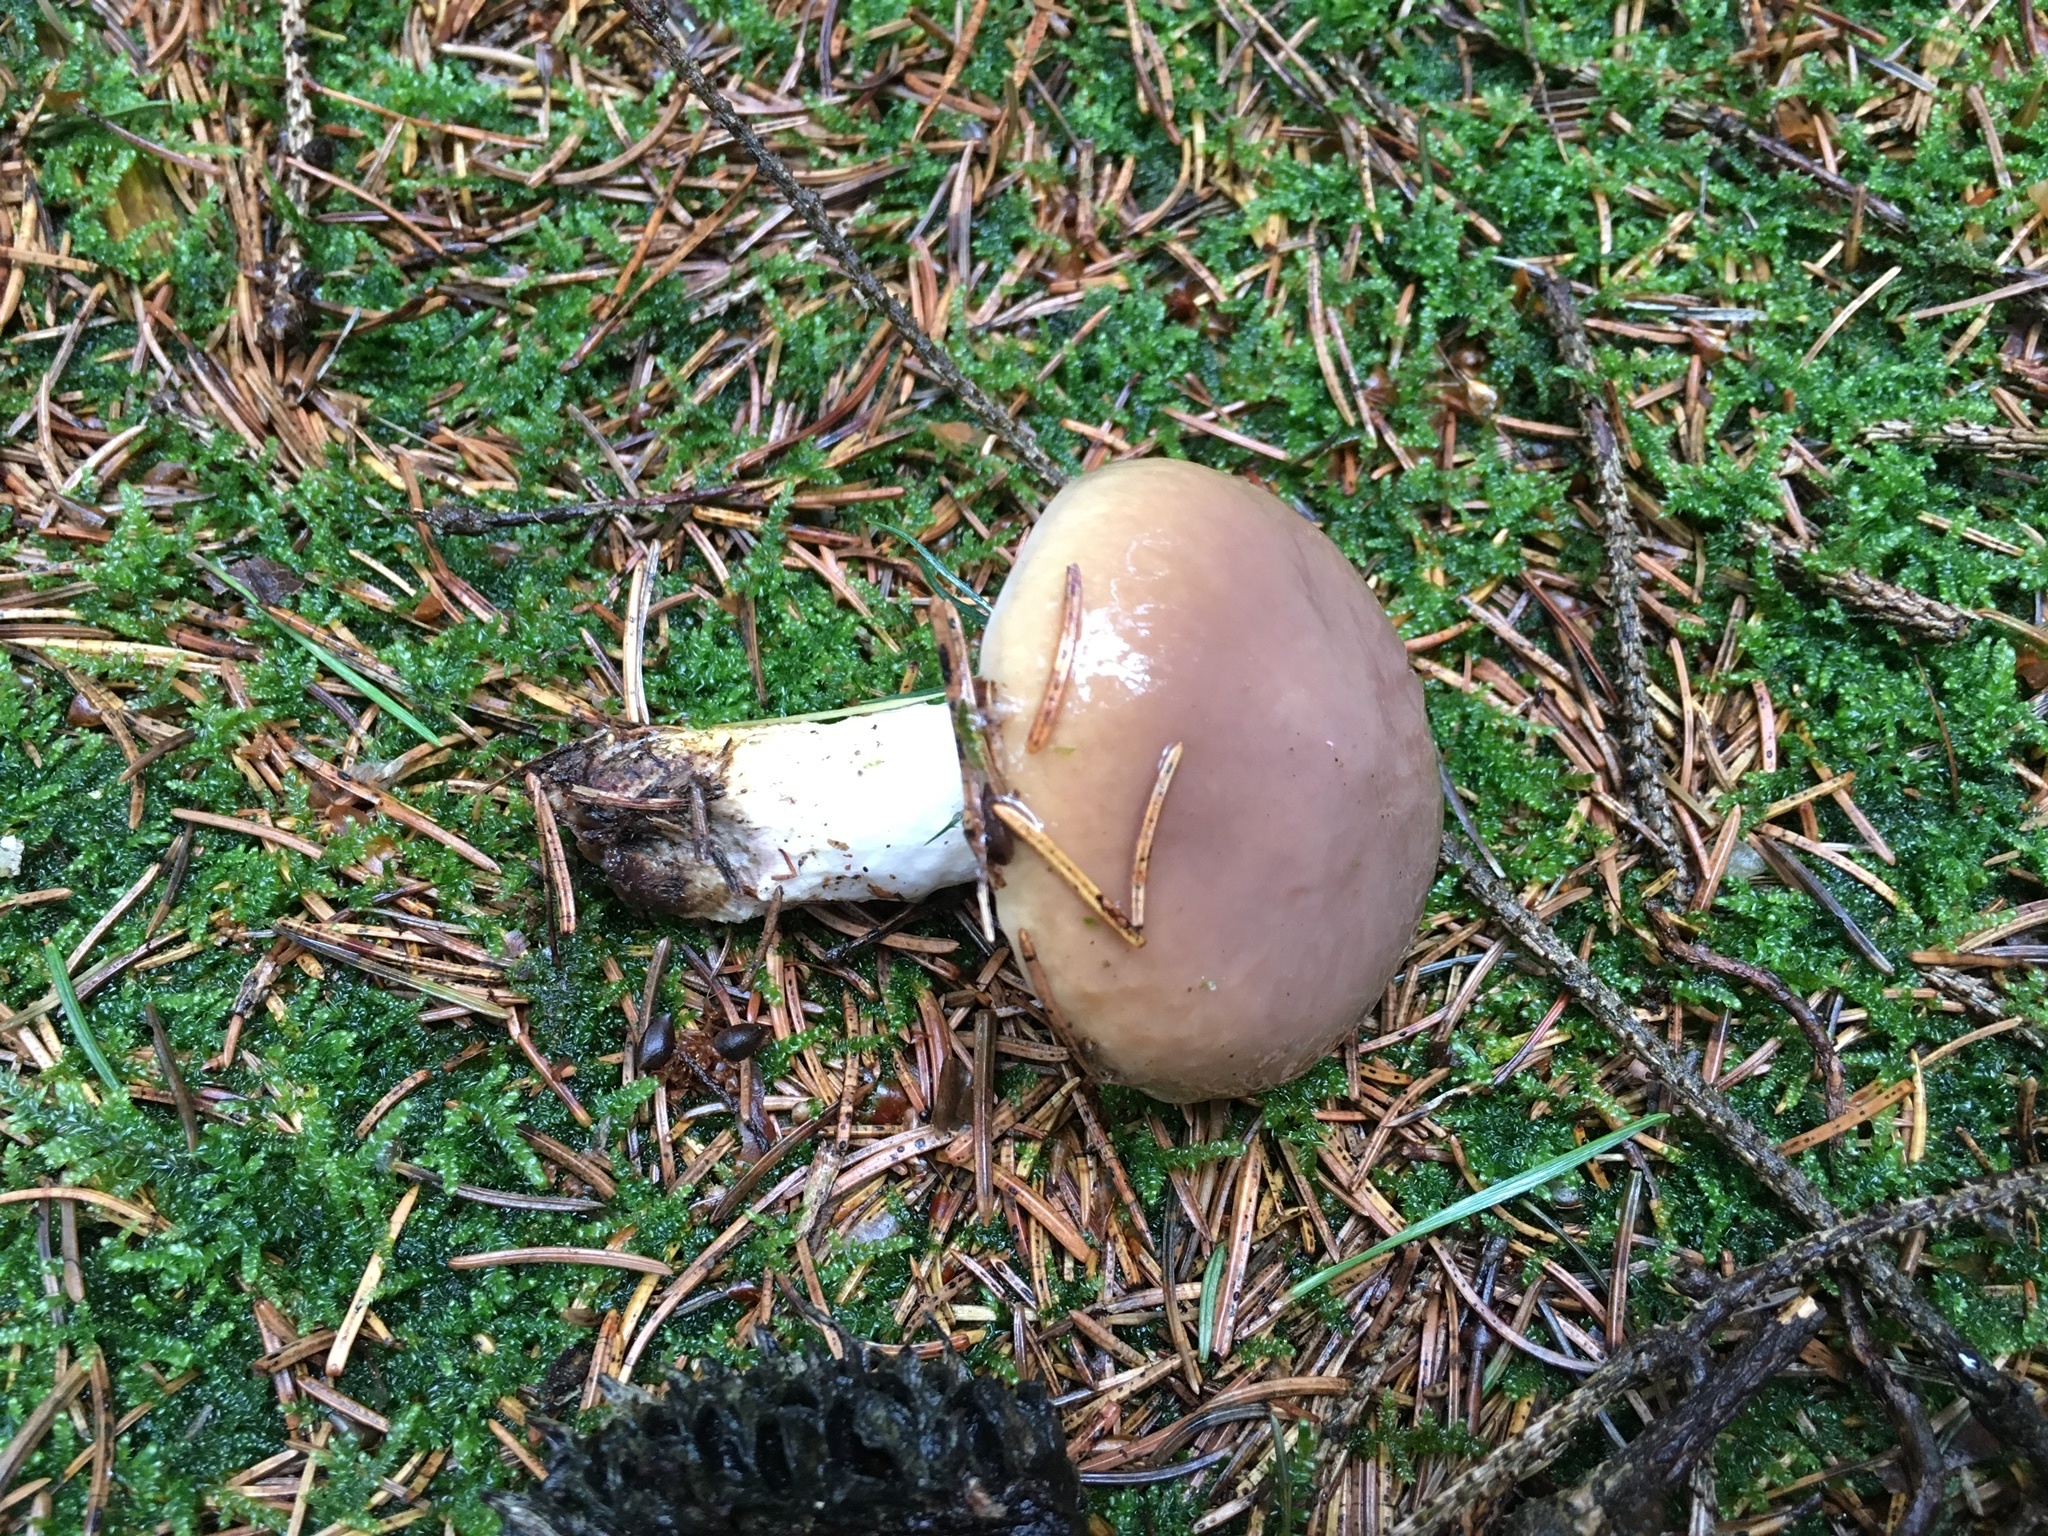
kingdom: Fungi
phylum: Basidiomycota
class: Agaricomycetes
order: Boletales
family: Gomphidiaceae
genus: Gomphidius
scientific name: Gomphidius glutinosus
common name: Slimy spike
